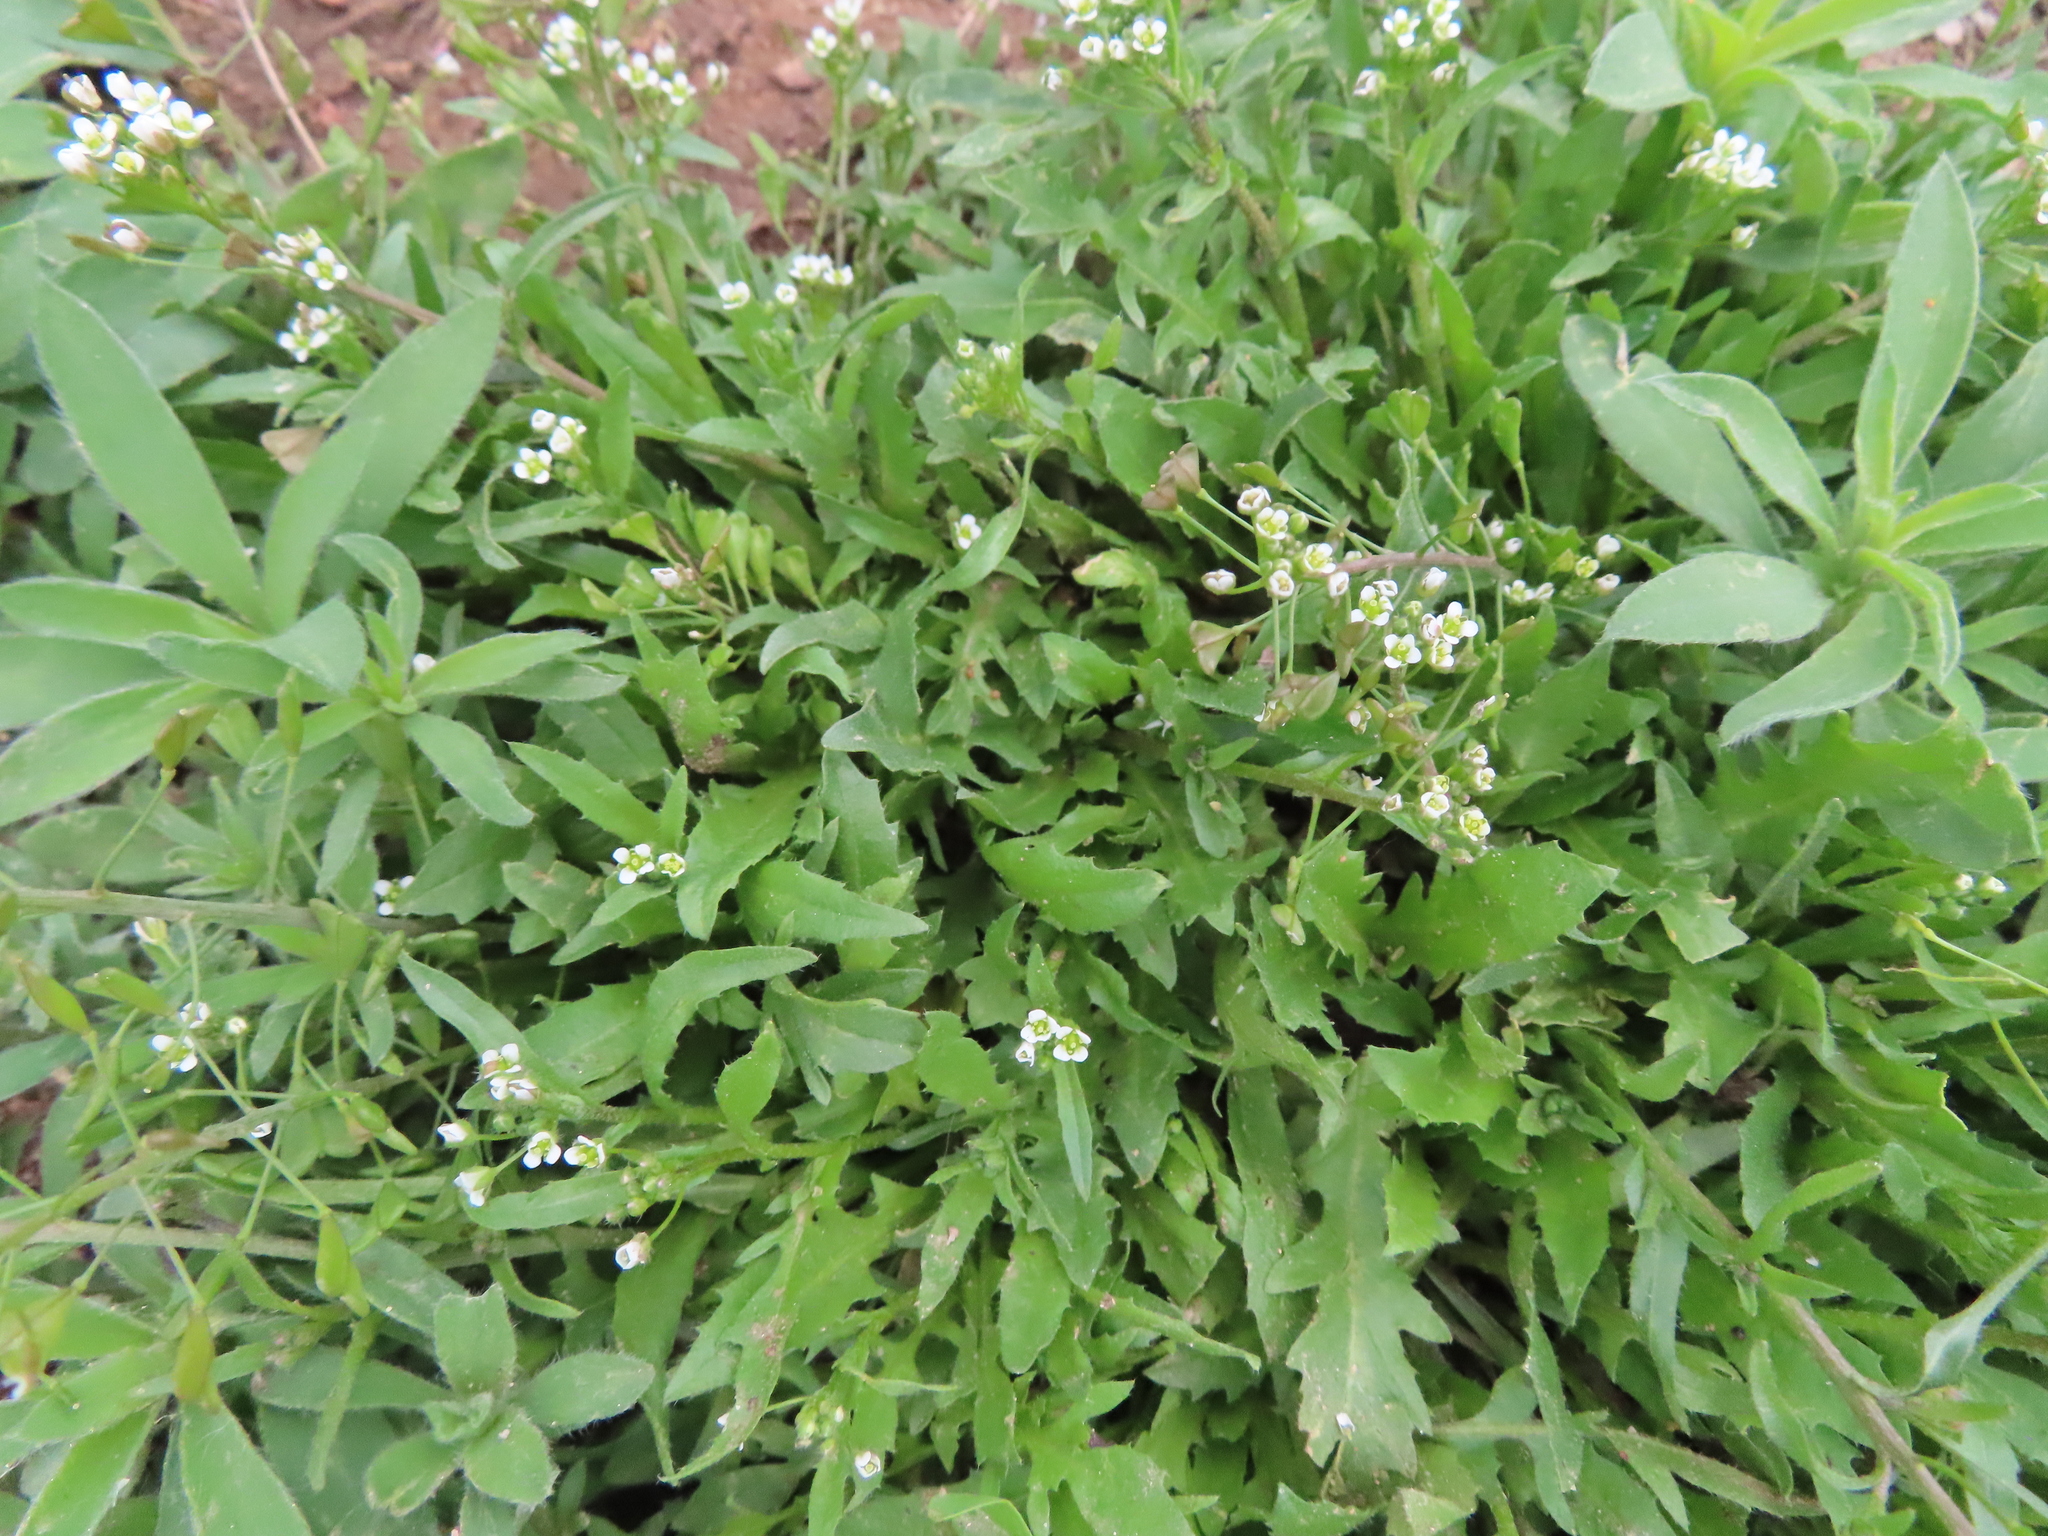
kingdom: Plantae
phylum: Tracheophyta
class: Magnoliopsida
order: Brassicales
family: Brassicaceae
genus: Capsella
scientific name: Capsella bursa-pastoris
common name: Shepherd's purse
